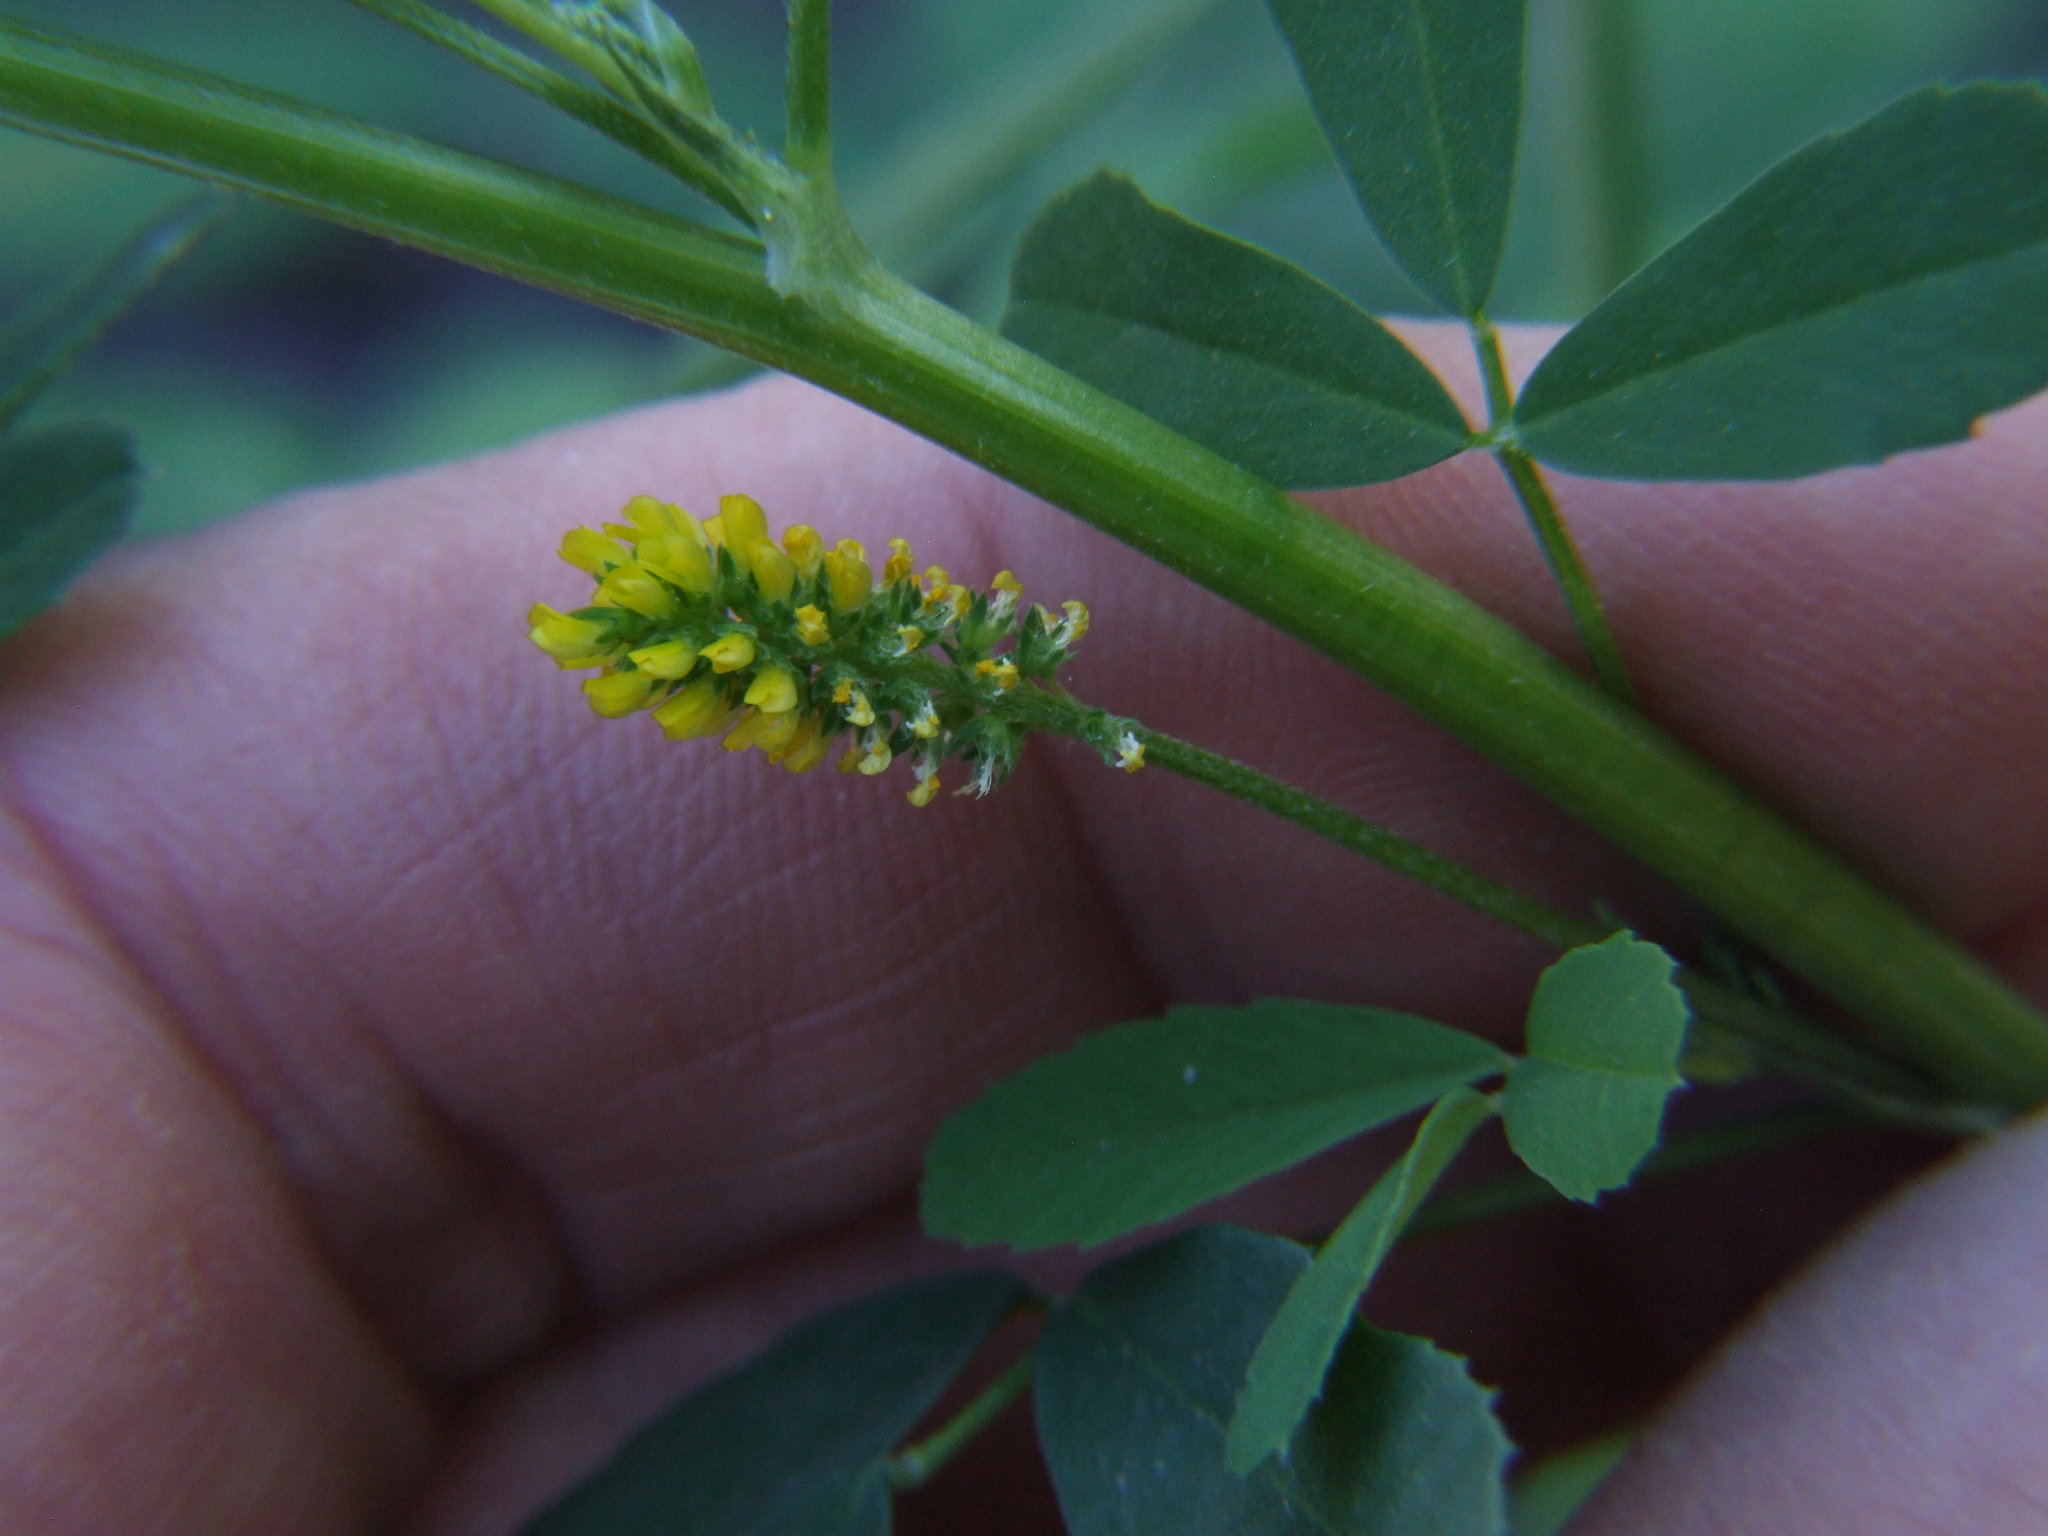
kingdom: Plantae
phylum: Tracheophyta
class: Magnoliopsida
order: Fabales
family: Fabaceae
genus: Melilotus
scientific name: Melilotus indicus
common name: Small melilot
